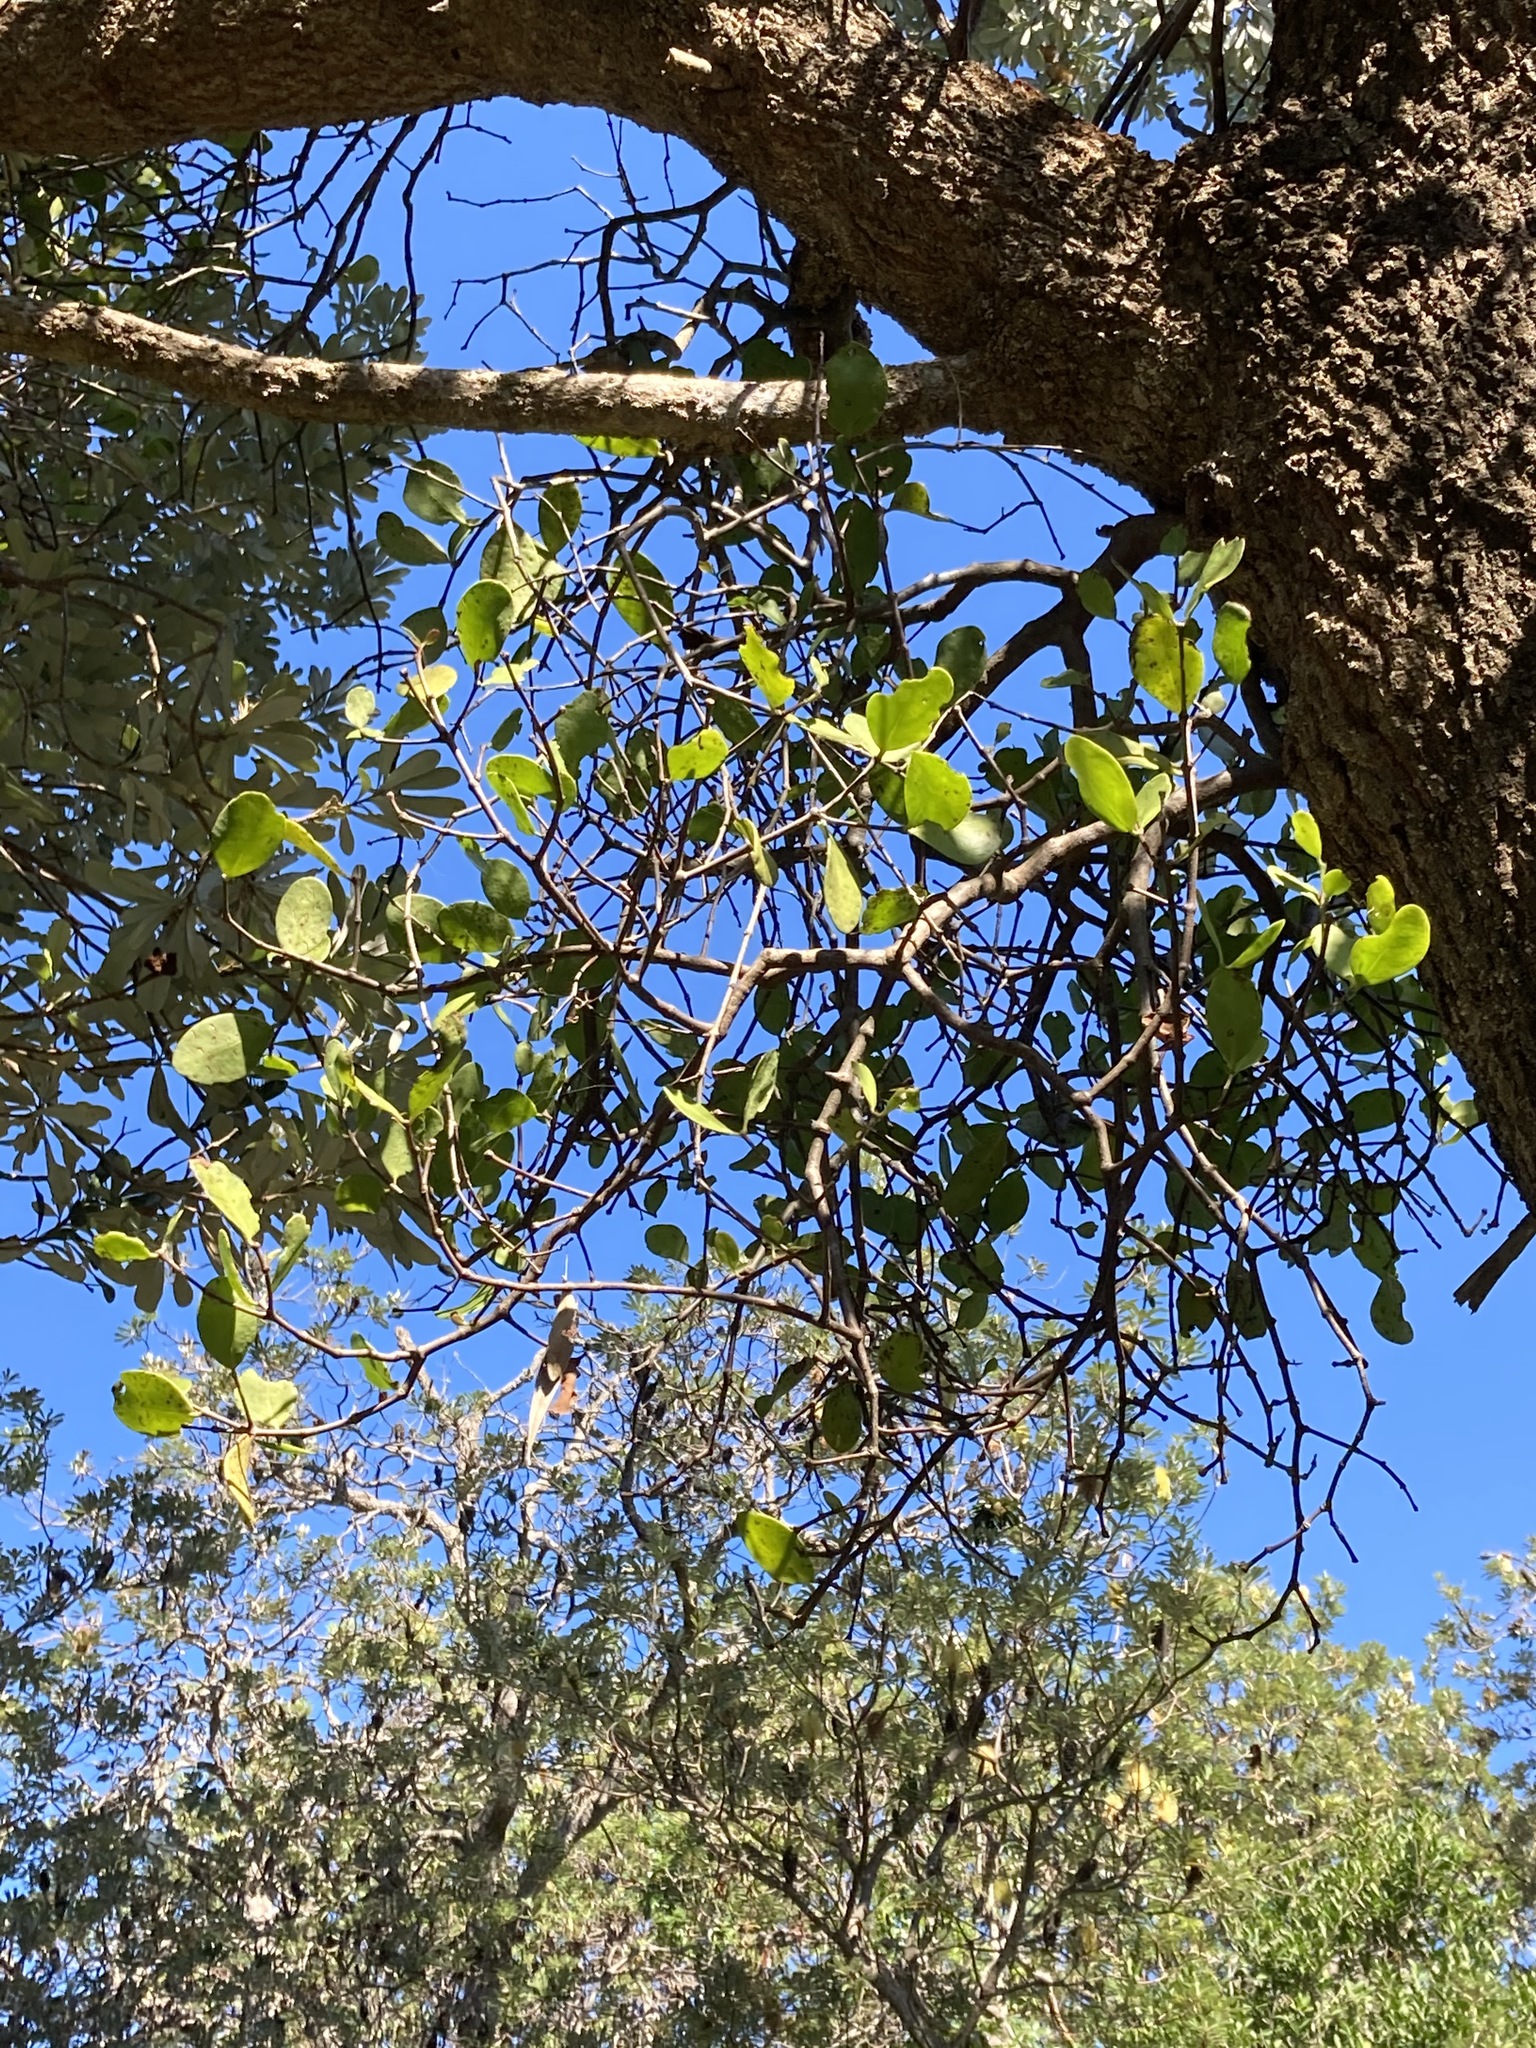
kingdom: Plantae
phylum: Tracheophyta
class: Magnoliopsida
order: Santalales
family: Loranthaceae
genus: Muellerina
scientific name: Muellerina celastroides
